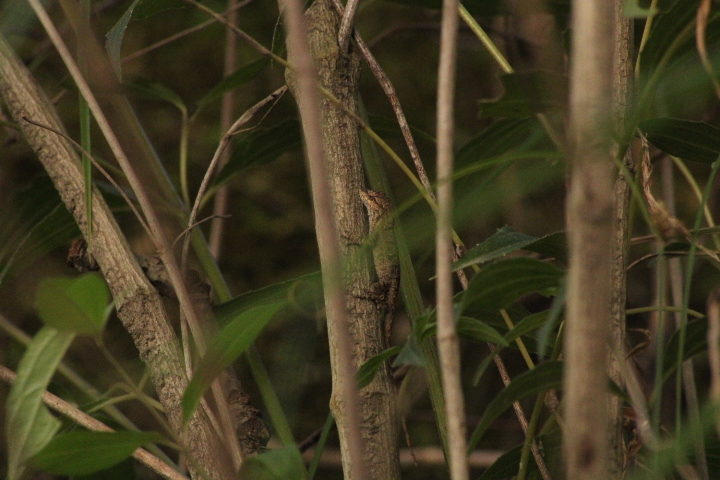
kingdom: Animalia
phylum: Chordata
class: Squamata
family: Dactyloidae
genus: Anolis
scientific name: Anolis nebulosus
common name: Clouded anole
